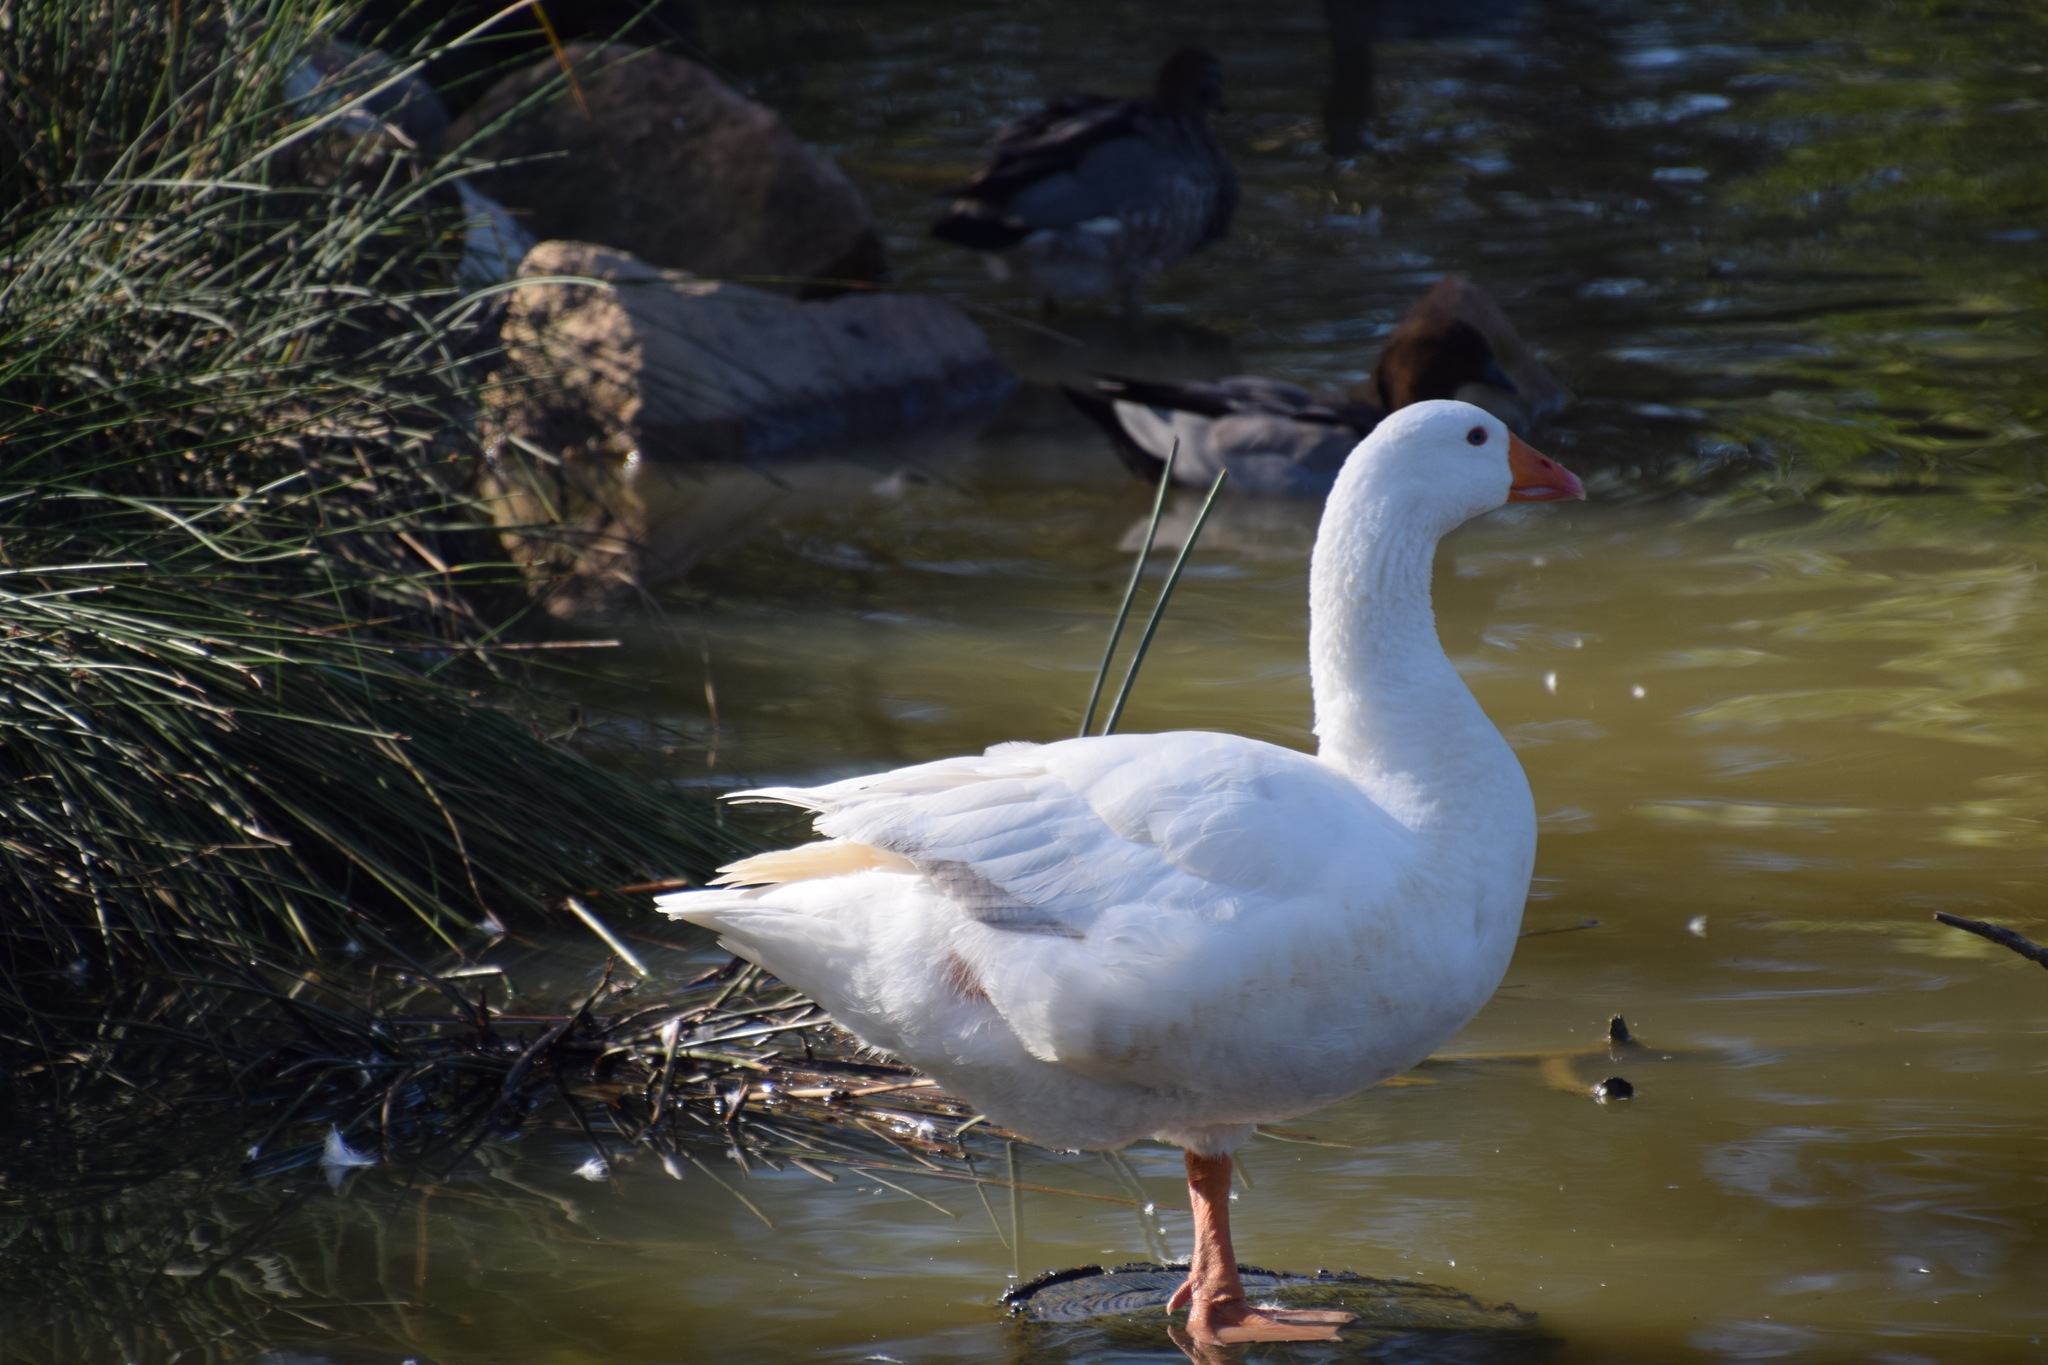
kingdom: Animalia
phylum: Chordata
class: Aves
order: Anseriformes
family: Anatidae
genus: Anser
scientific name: Anser anser
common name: Greylag goose
